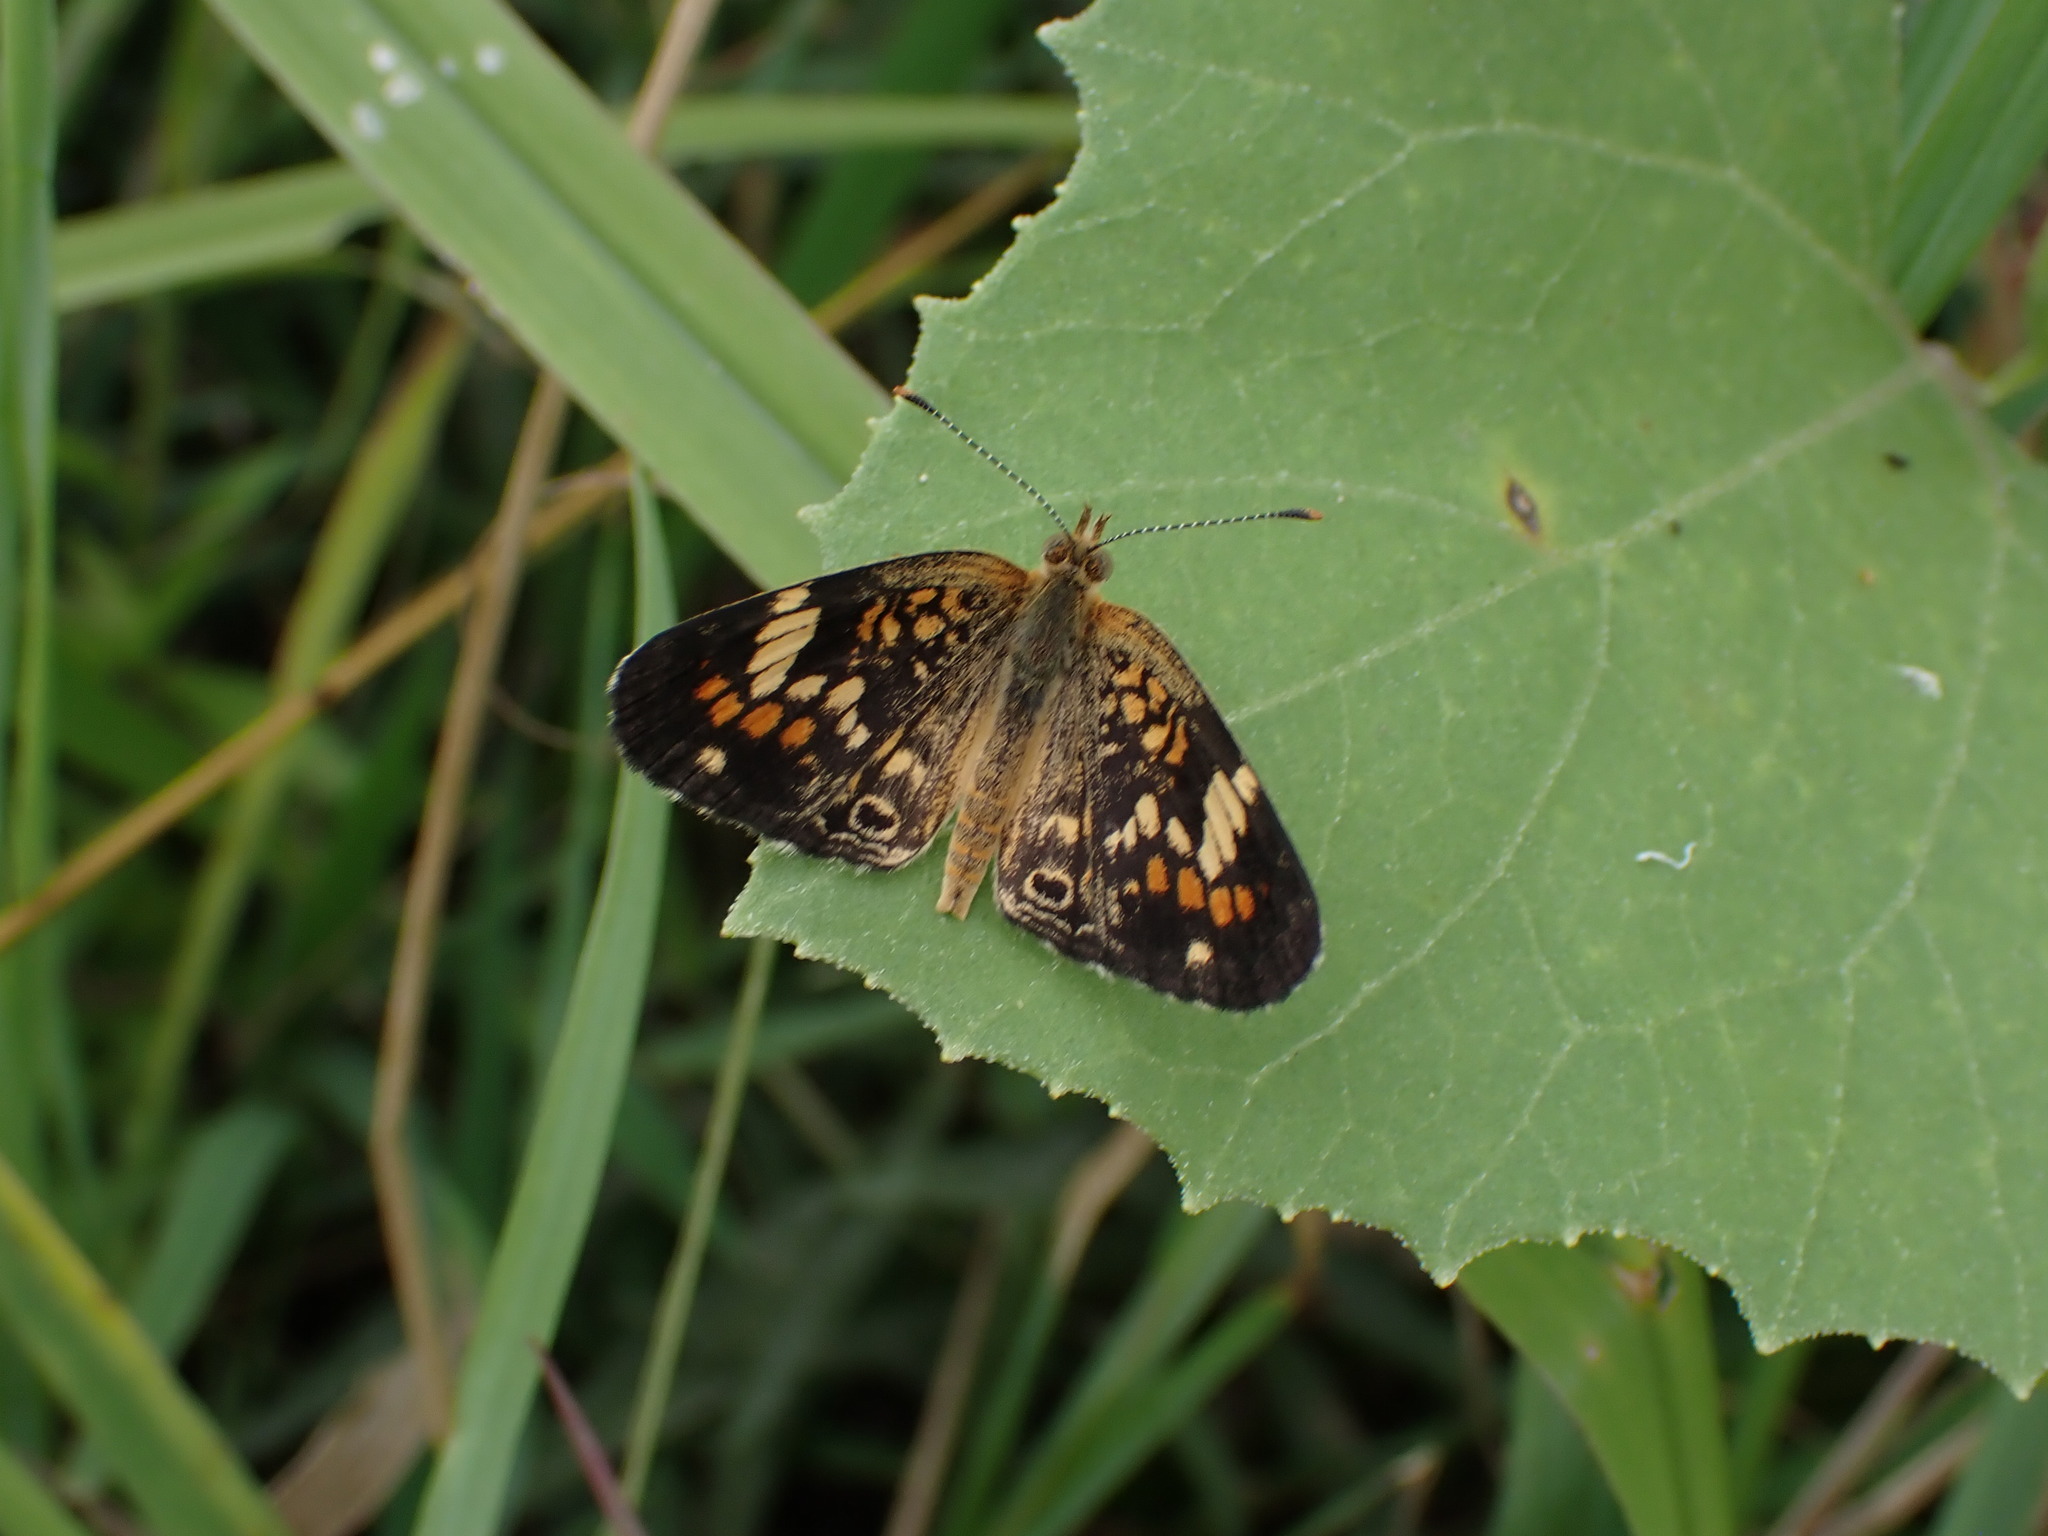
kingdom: Animalia
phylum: Arthropoda
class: Insecta
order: Lepidoptera
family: Nymphalidae
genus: Phyciodes
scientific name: Phyciodes phaon
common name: Phaon crescent
